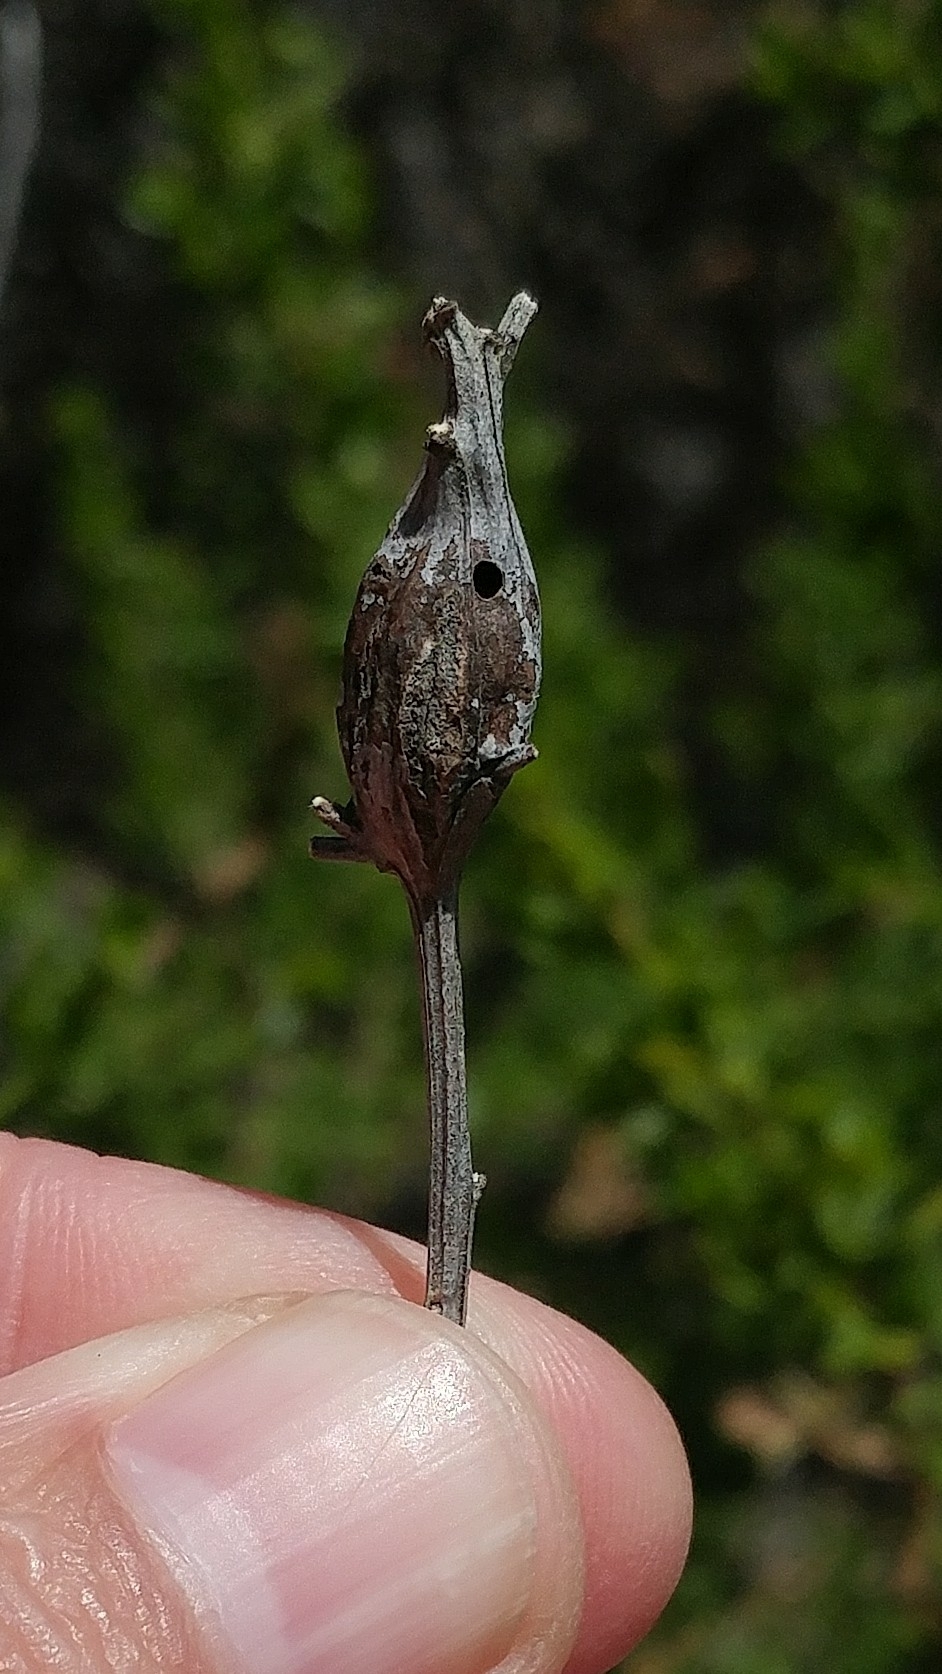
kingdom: Animalia
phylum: Arthropoda
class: Insecta
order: Lepidoptera
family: Gelechiidae
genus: Gnorimoschema
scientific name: Gnorimoschema baccharisella
